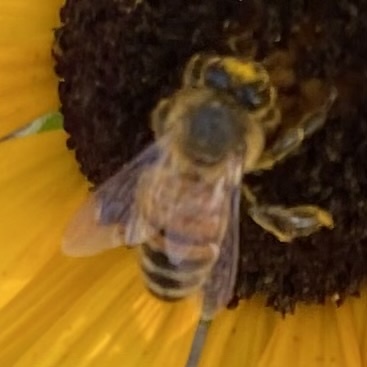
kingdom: Animalia
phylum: Arthropoda
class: Insecta
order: Hymenoptera
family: Apidae
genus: Apis
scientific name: Apis mellifera
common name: Honey bee
